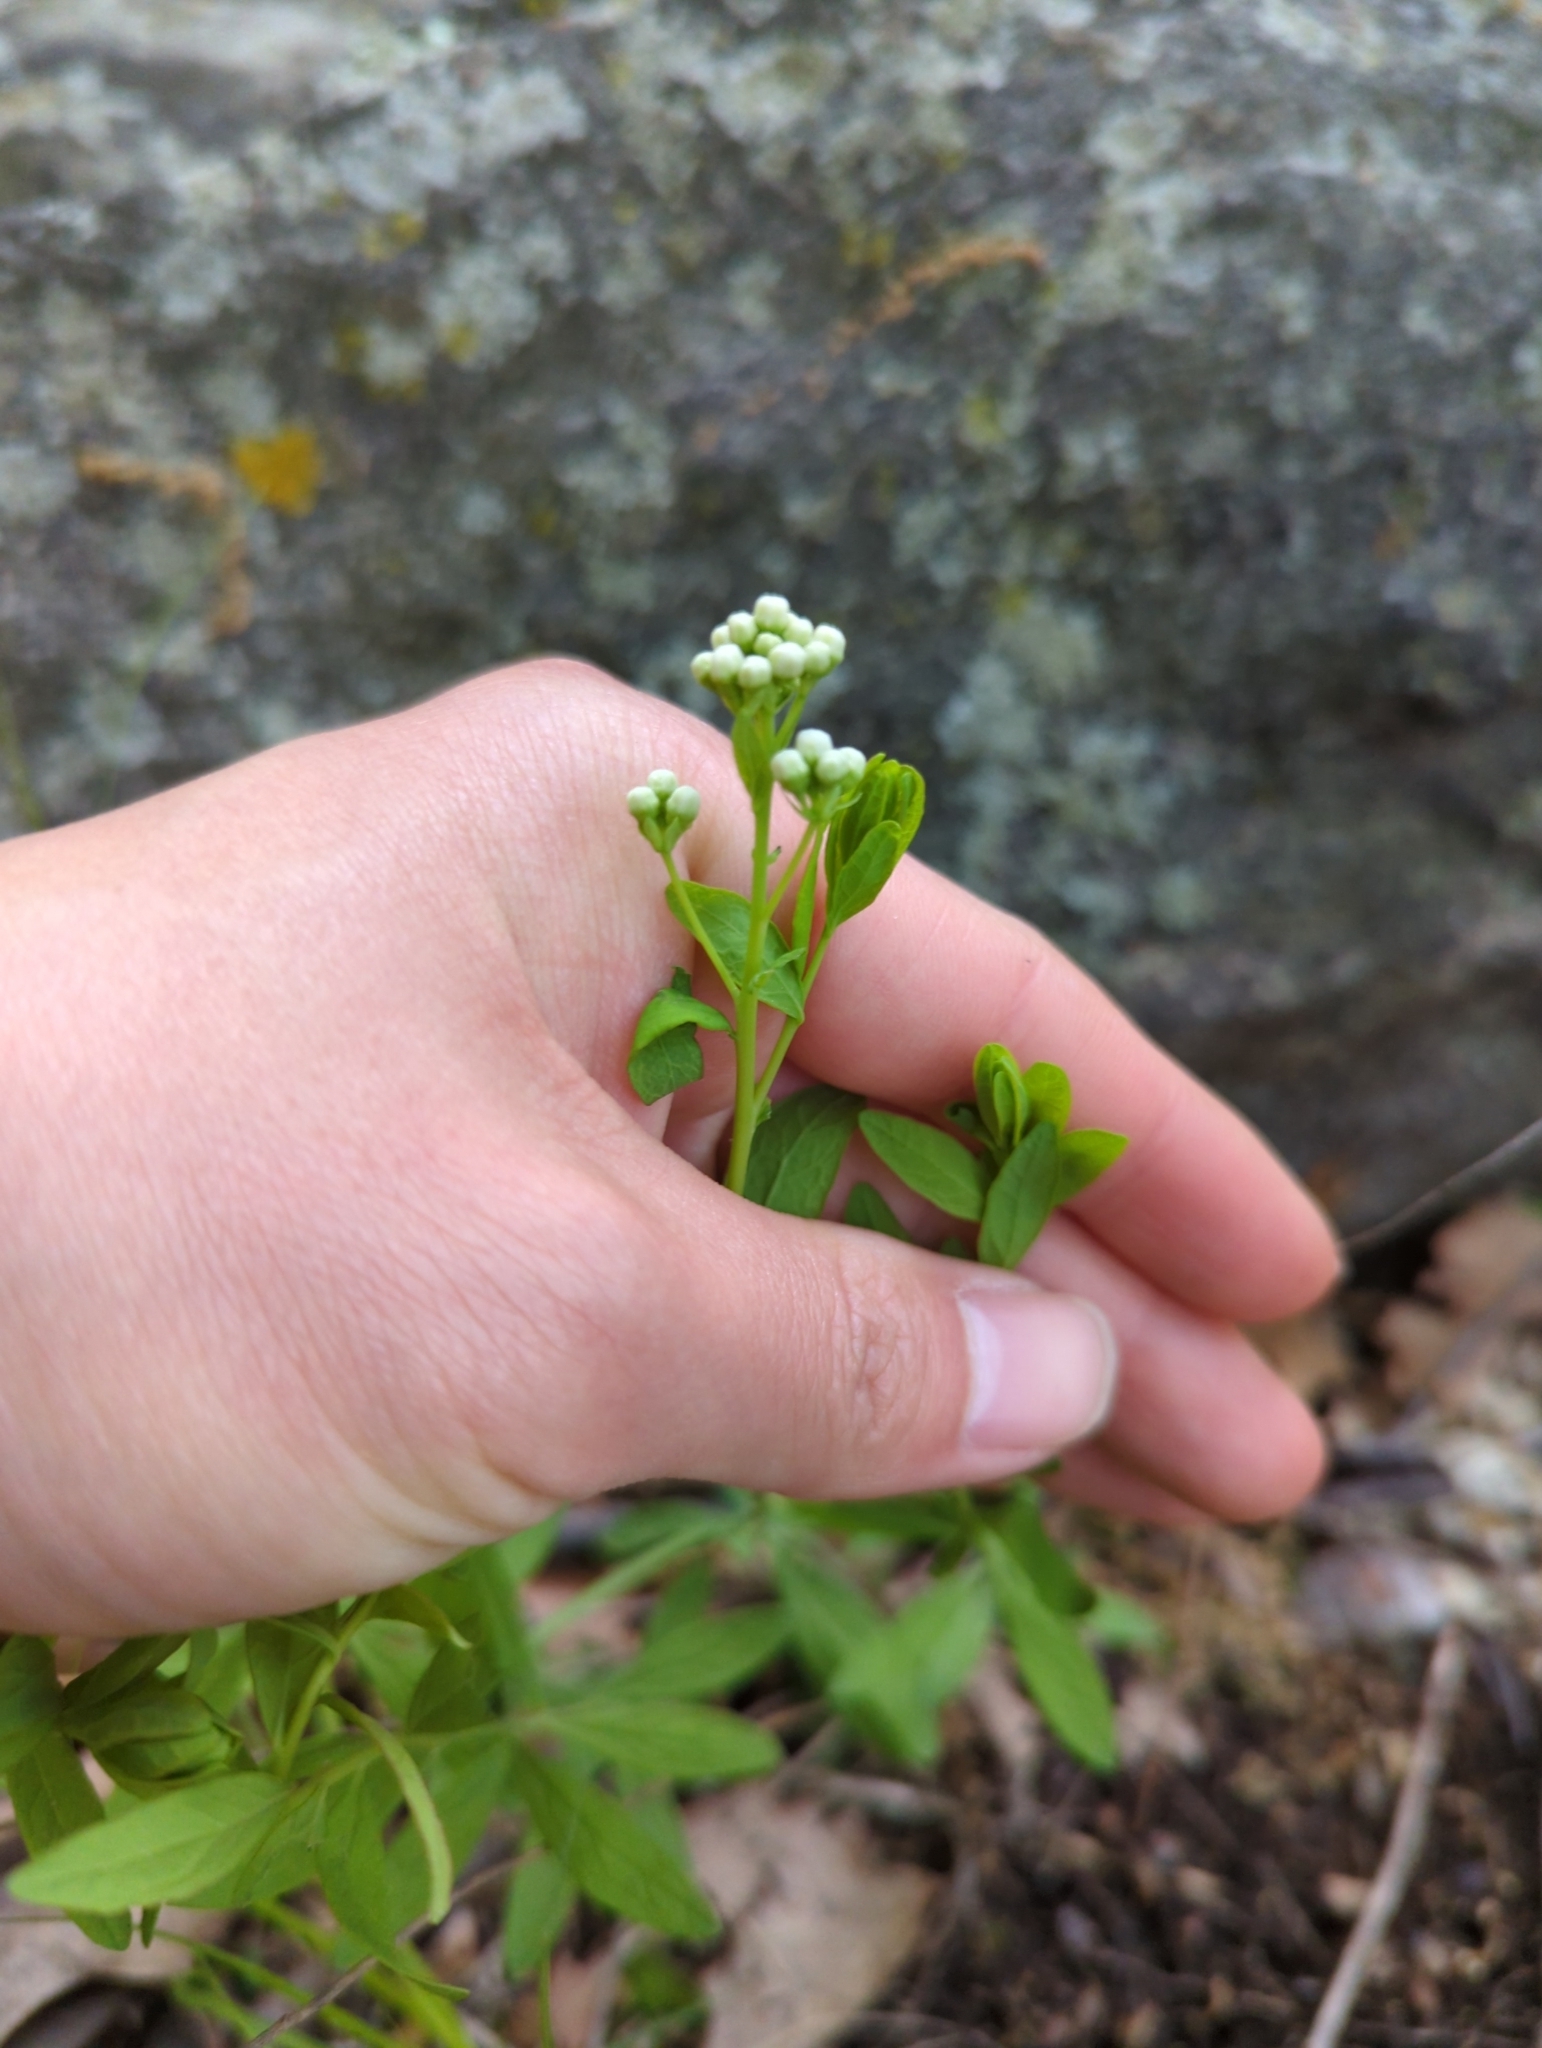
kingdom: Plantae
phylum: Tracheophyta
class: Magnoliopsida
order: Santalales
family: Comandraceae
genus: Comandra
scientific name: Comandra umbellata
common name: Bastard toadflax
